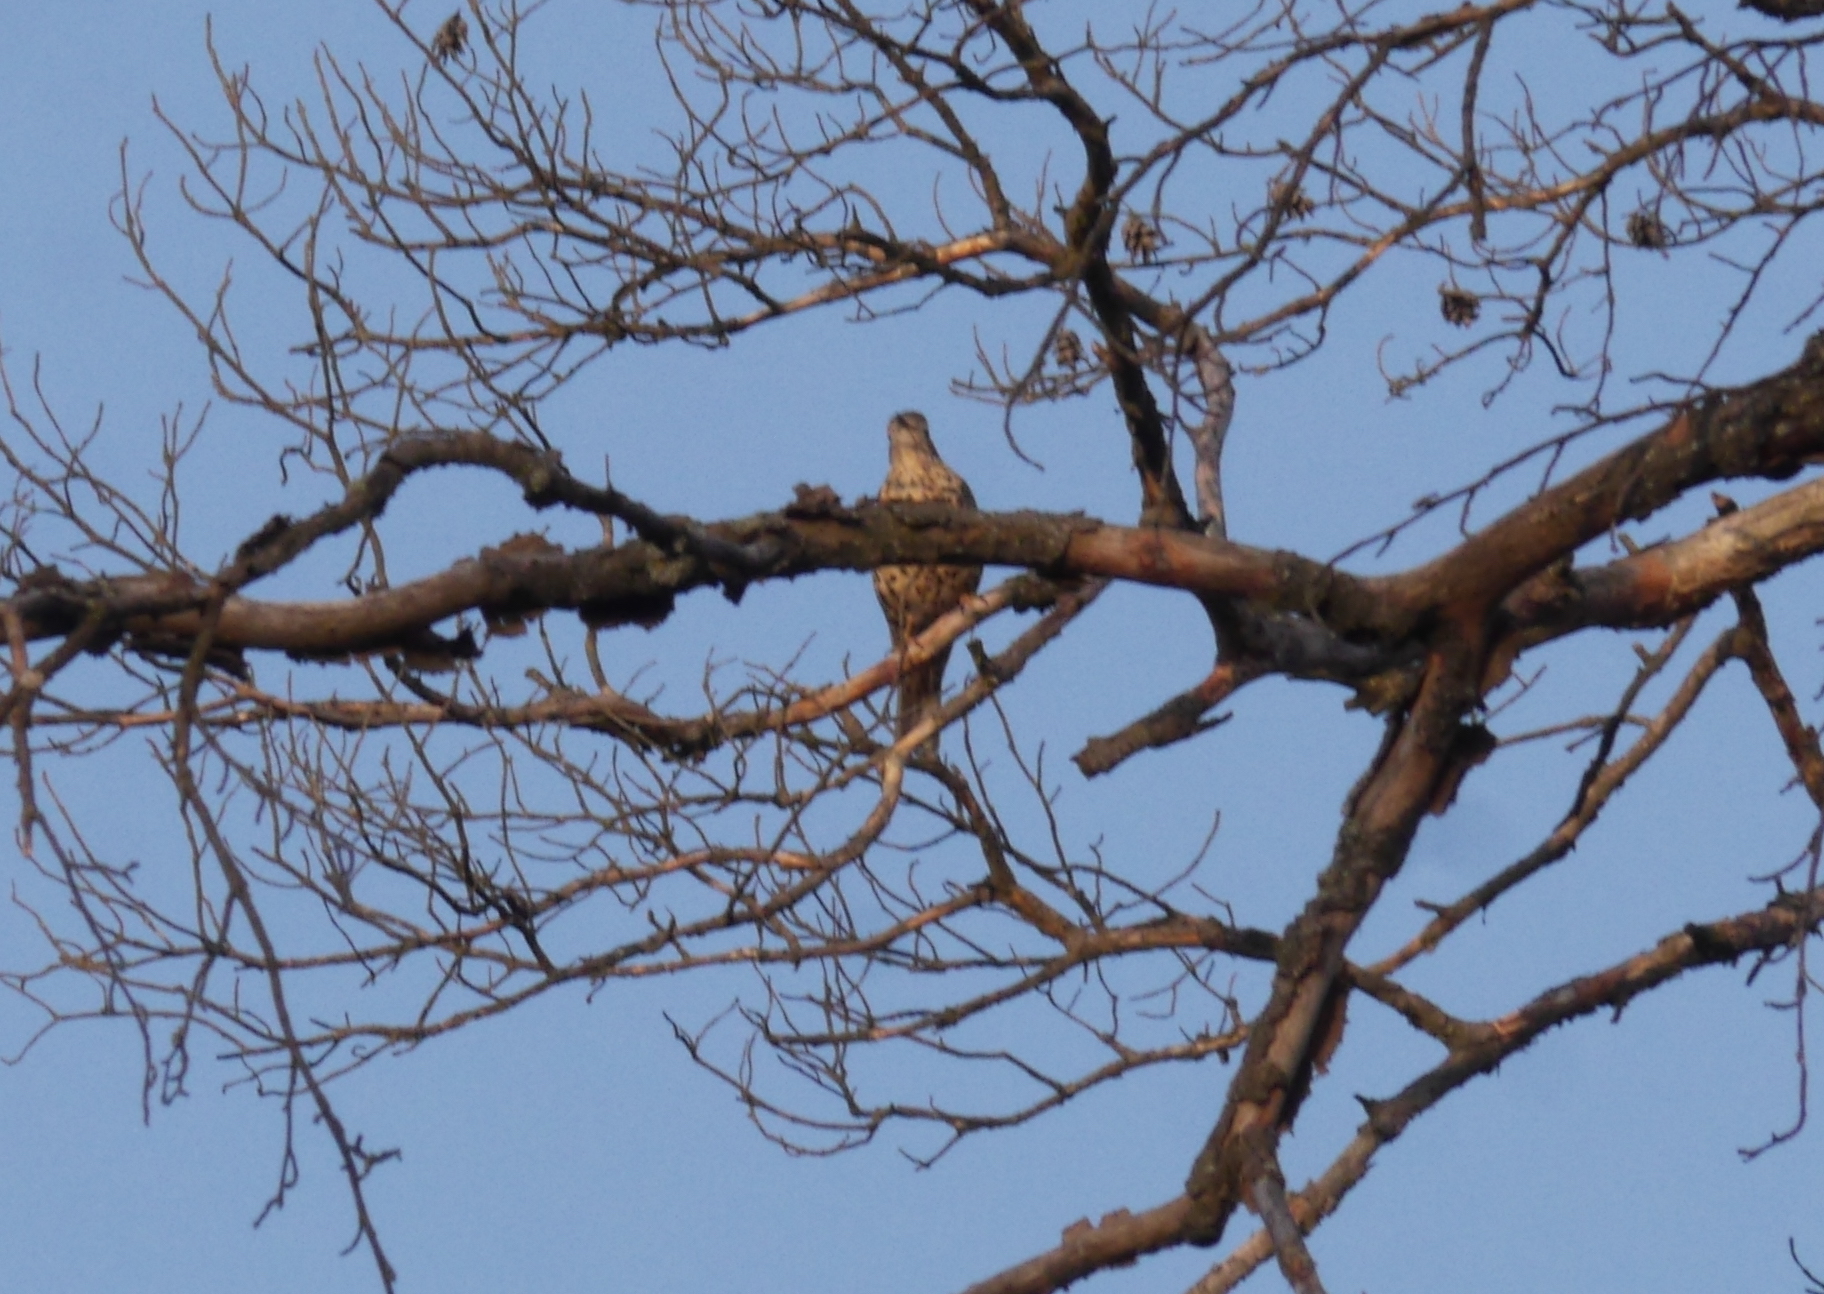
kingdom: Animalia
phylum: Chordata
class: Aves
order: Passeriformes
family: Turdidae
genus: Turdus
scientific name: Turdus viscivorus
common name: Mistle thrush
